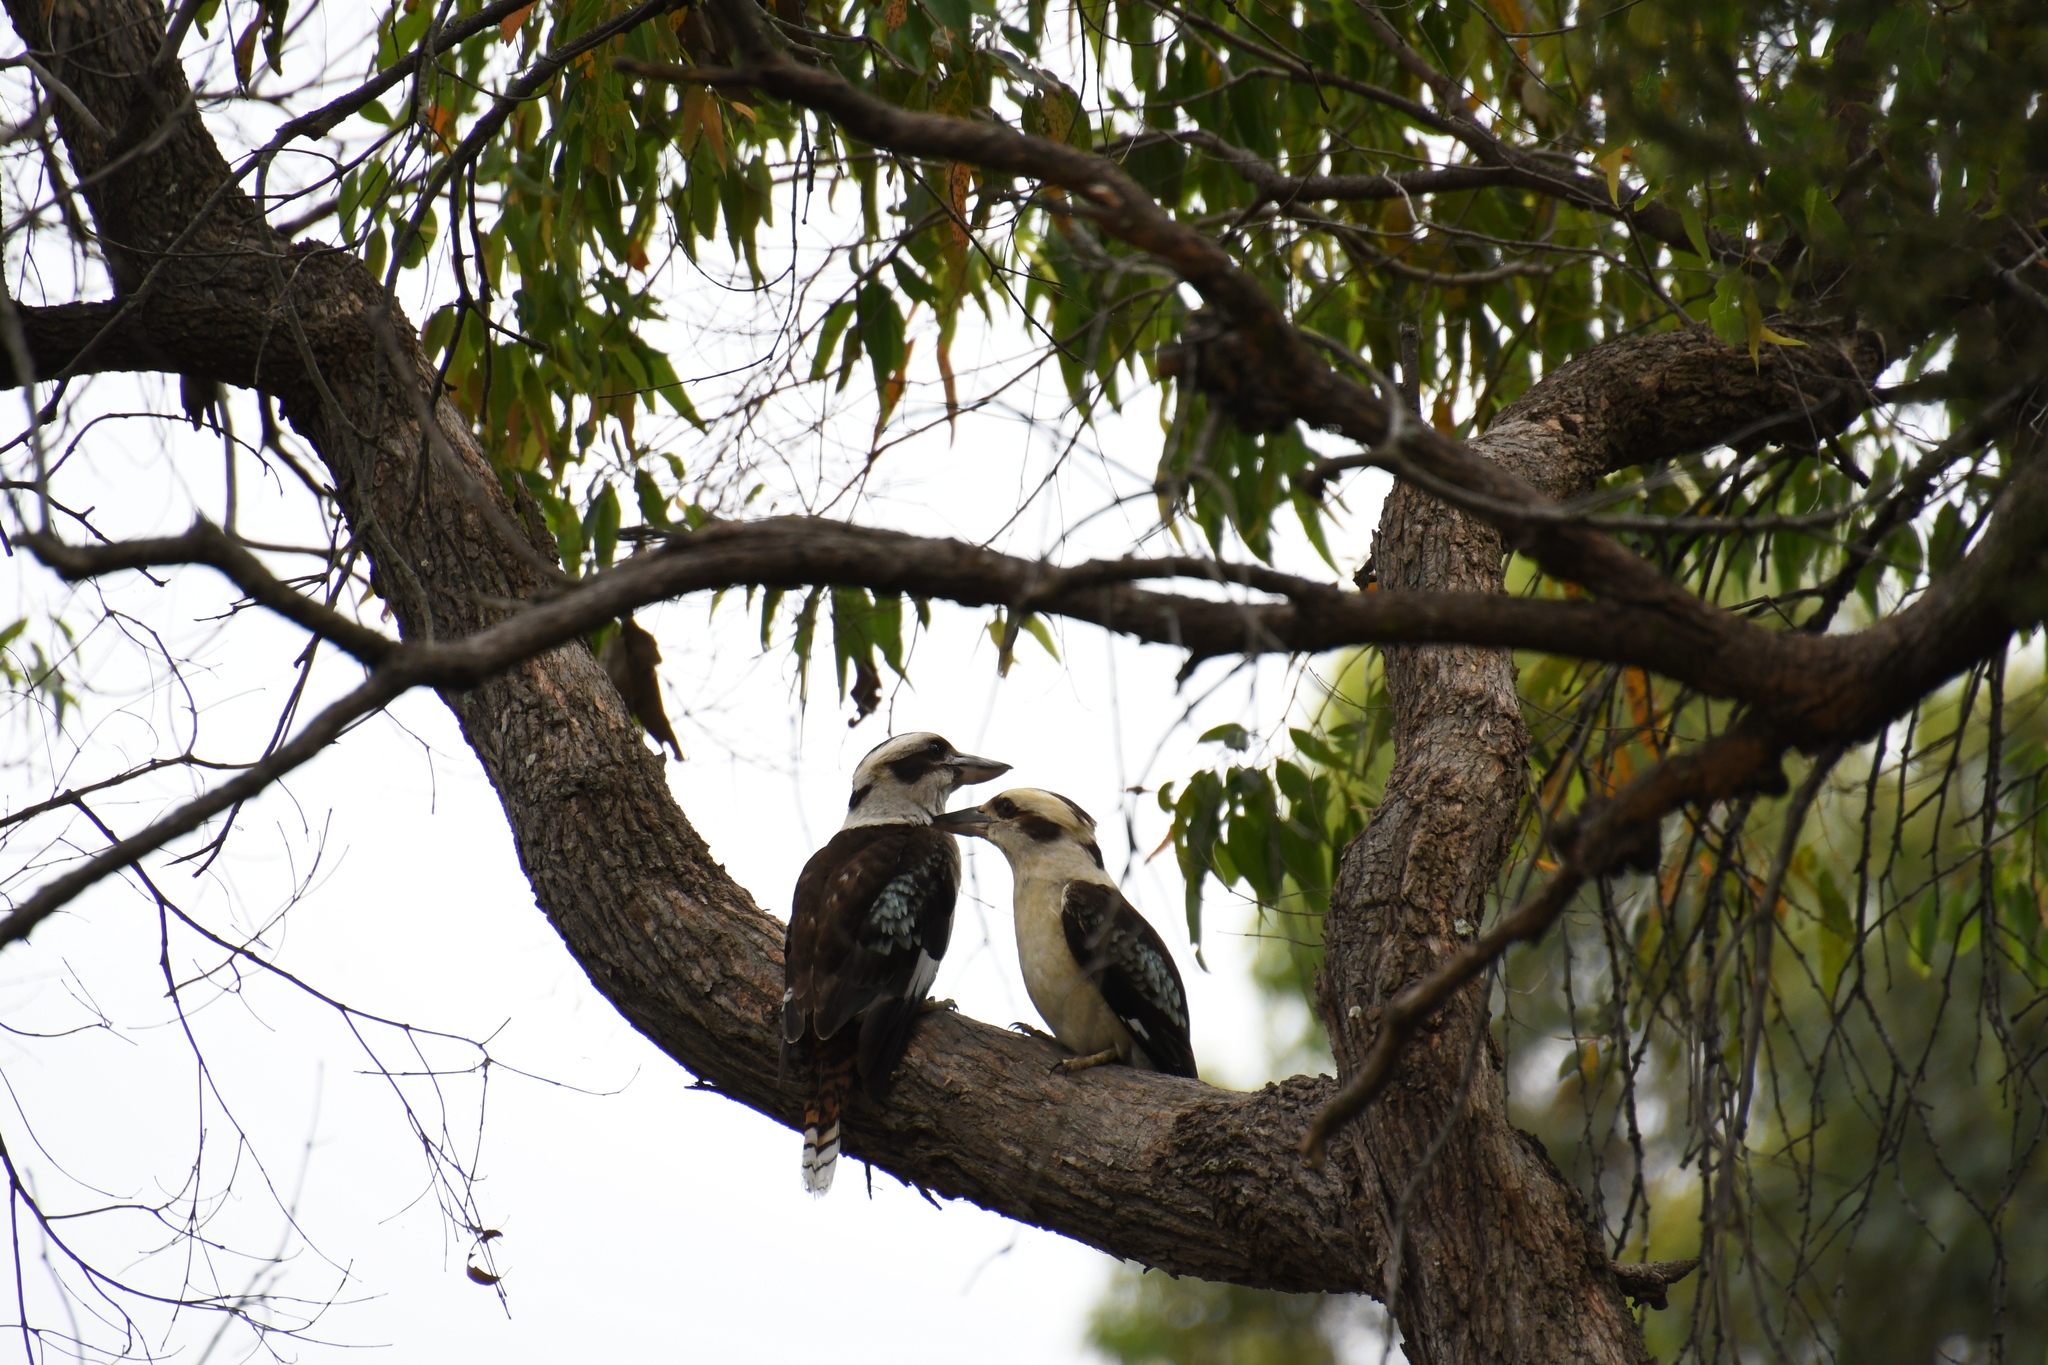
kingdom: Animalia
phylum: Chordata
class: Aves
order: Coraciiformes
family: Alcedinidae
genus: Dacelo
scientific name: Dacelo novaeguineae
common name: Laughing kookaburra
